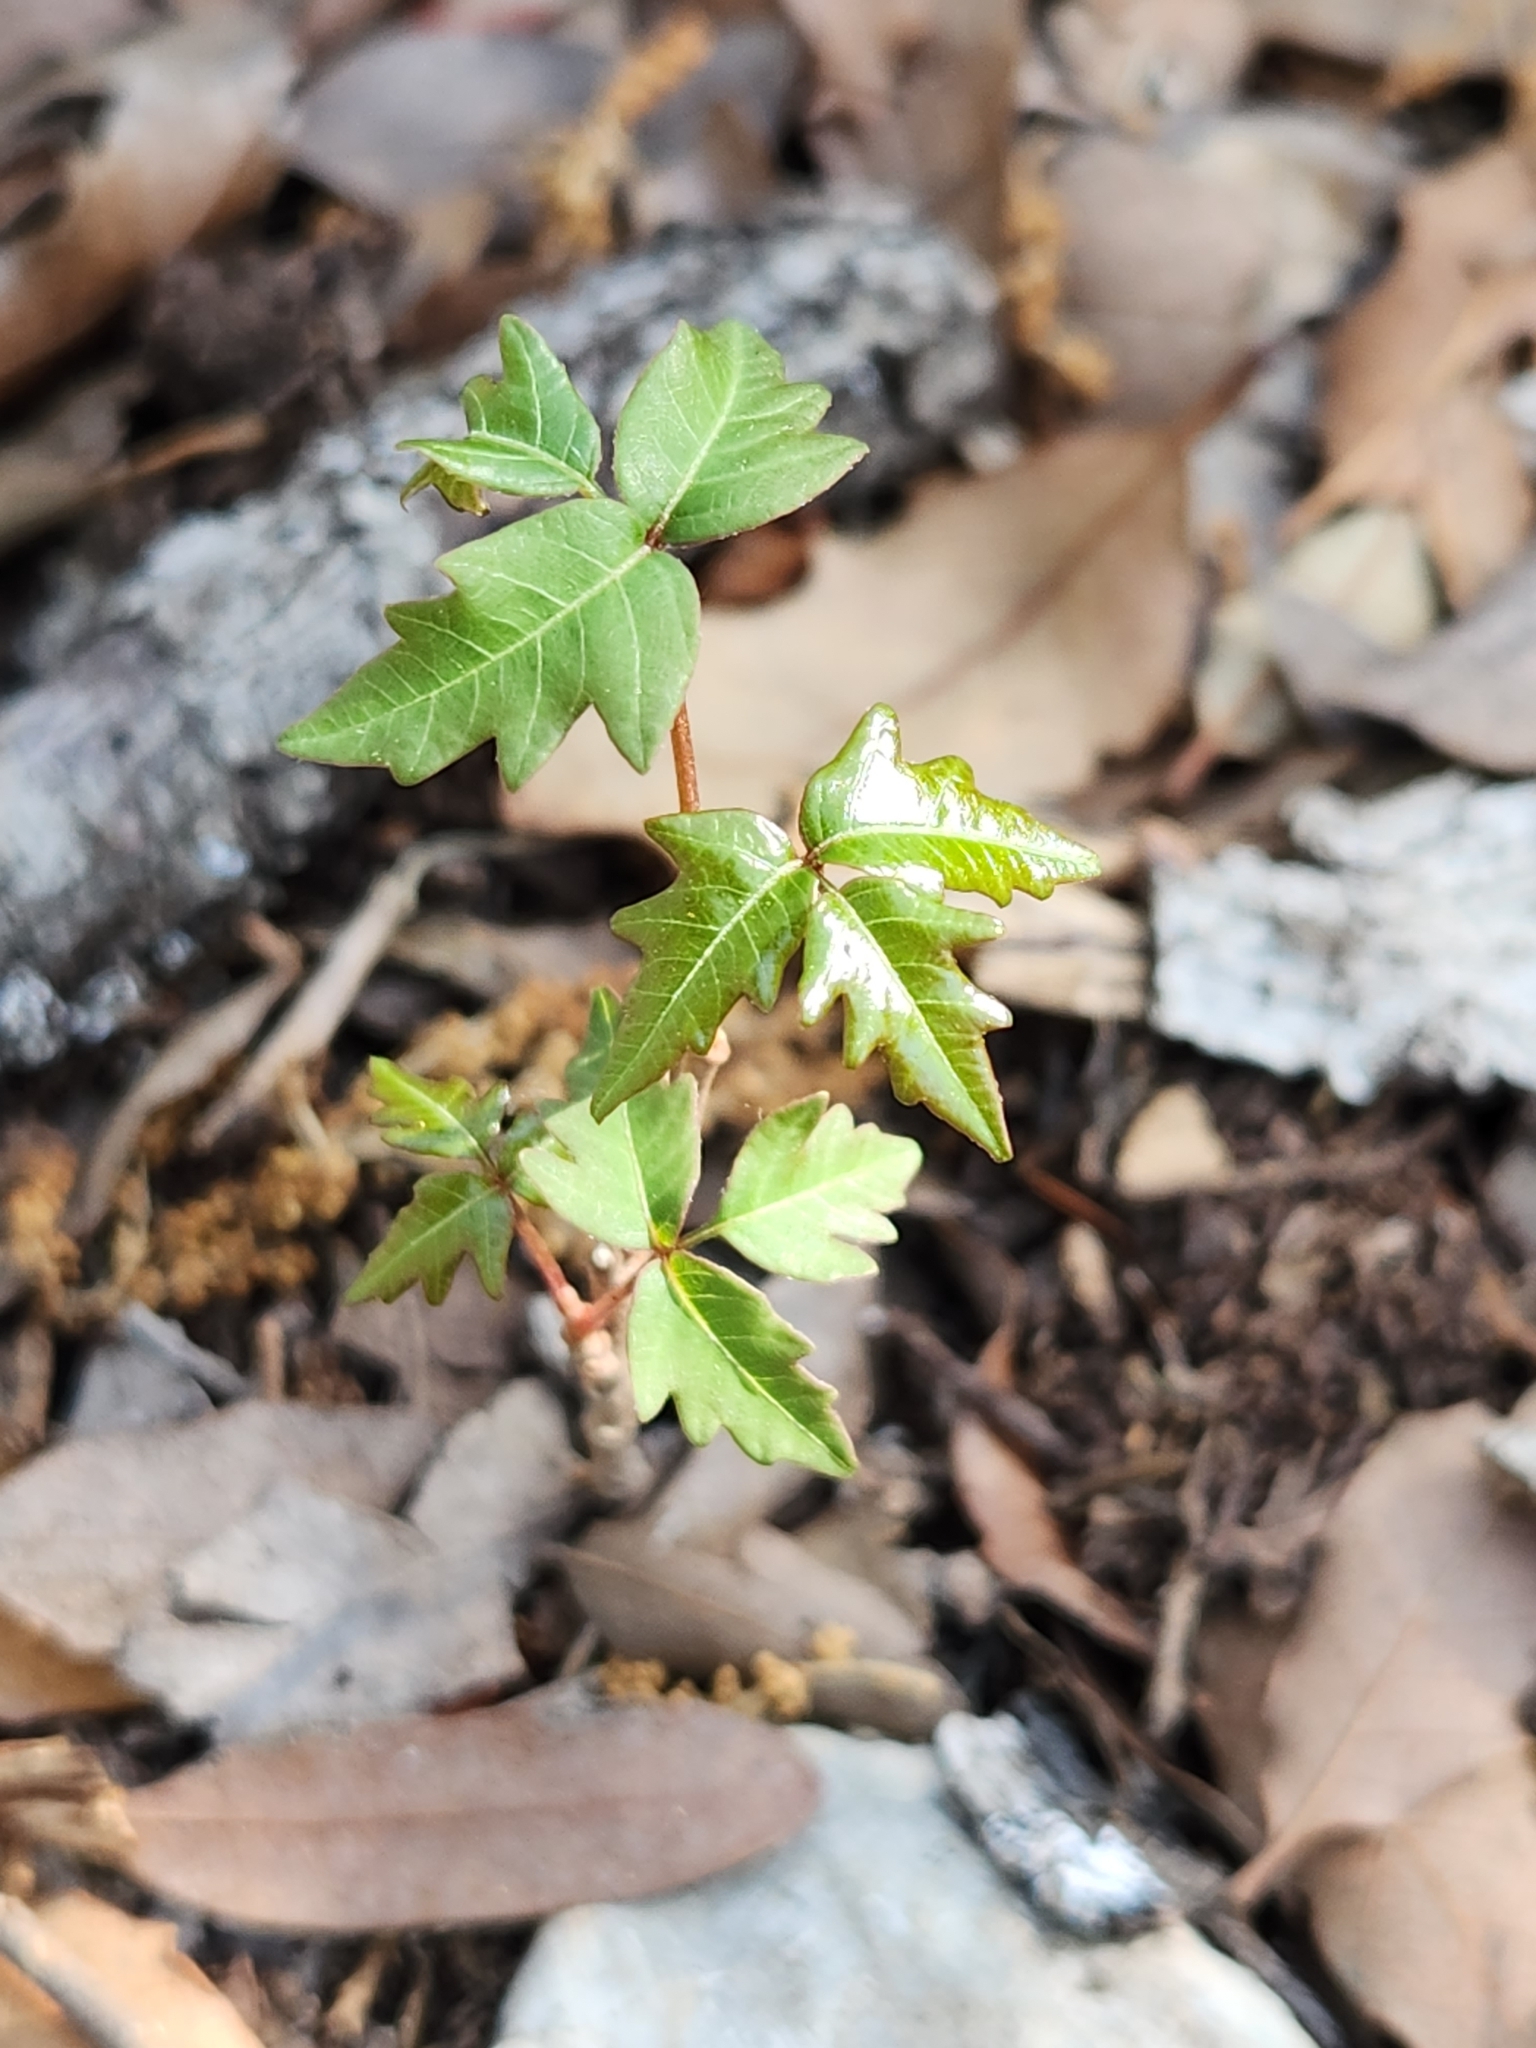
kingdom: Plantae
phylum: Tracheophyta
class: Magnoliopsida
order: Sapindales
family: Anacardiaceae
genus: Toxicodendron
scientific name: Toxicodendron radicans
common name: Poison ivy
